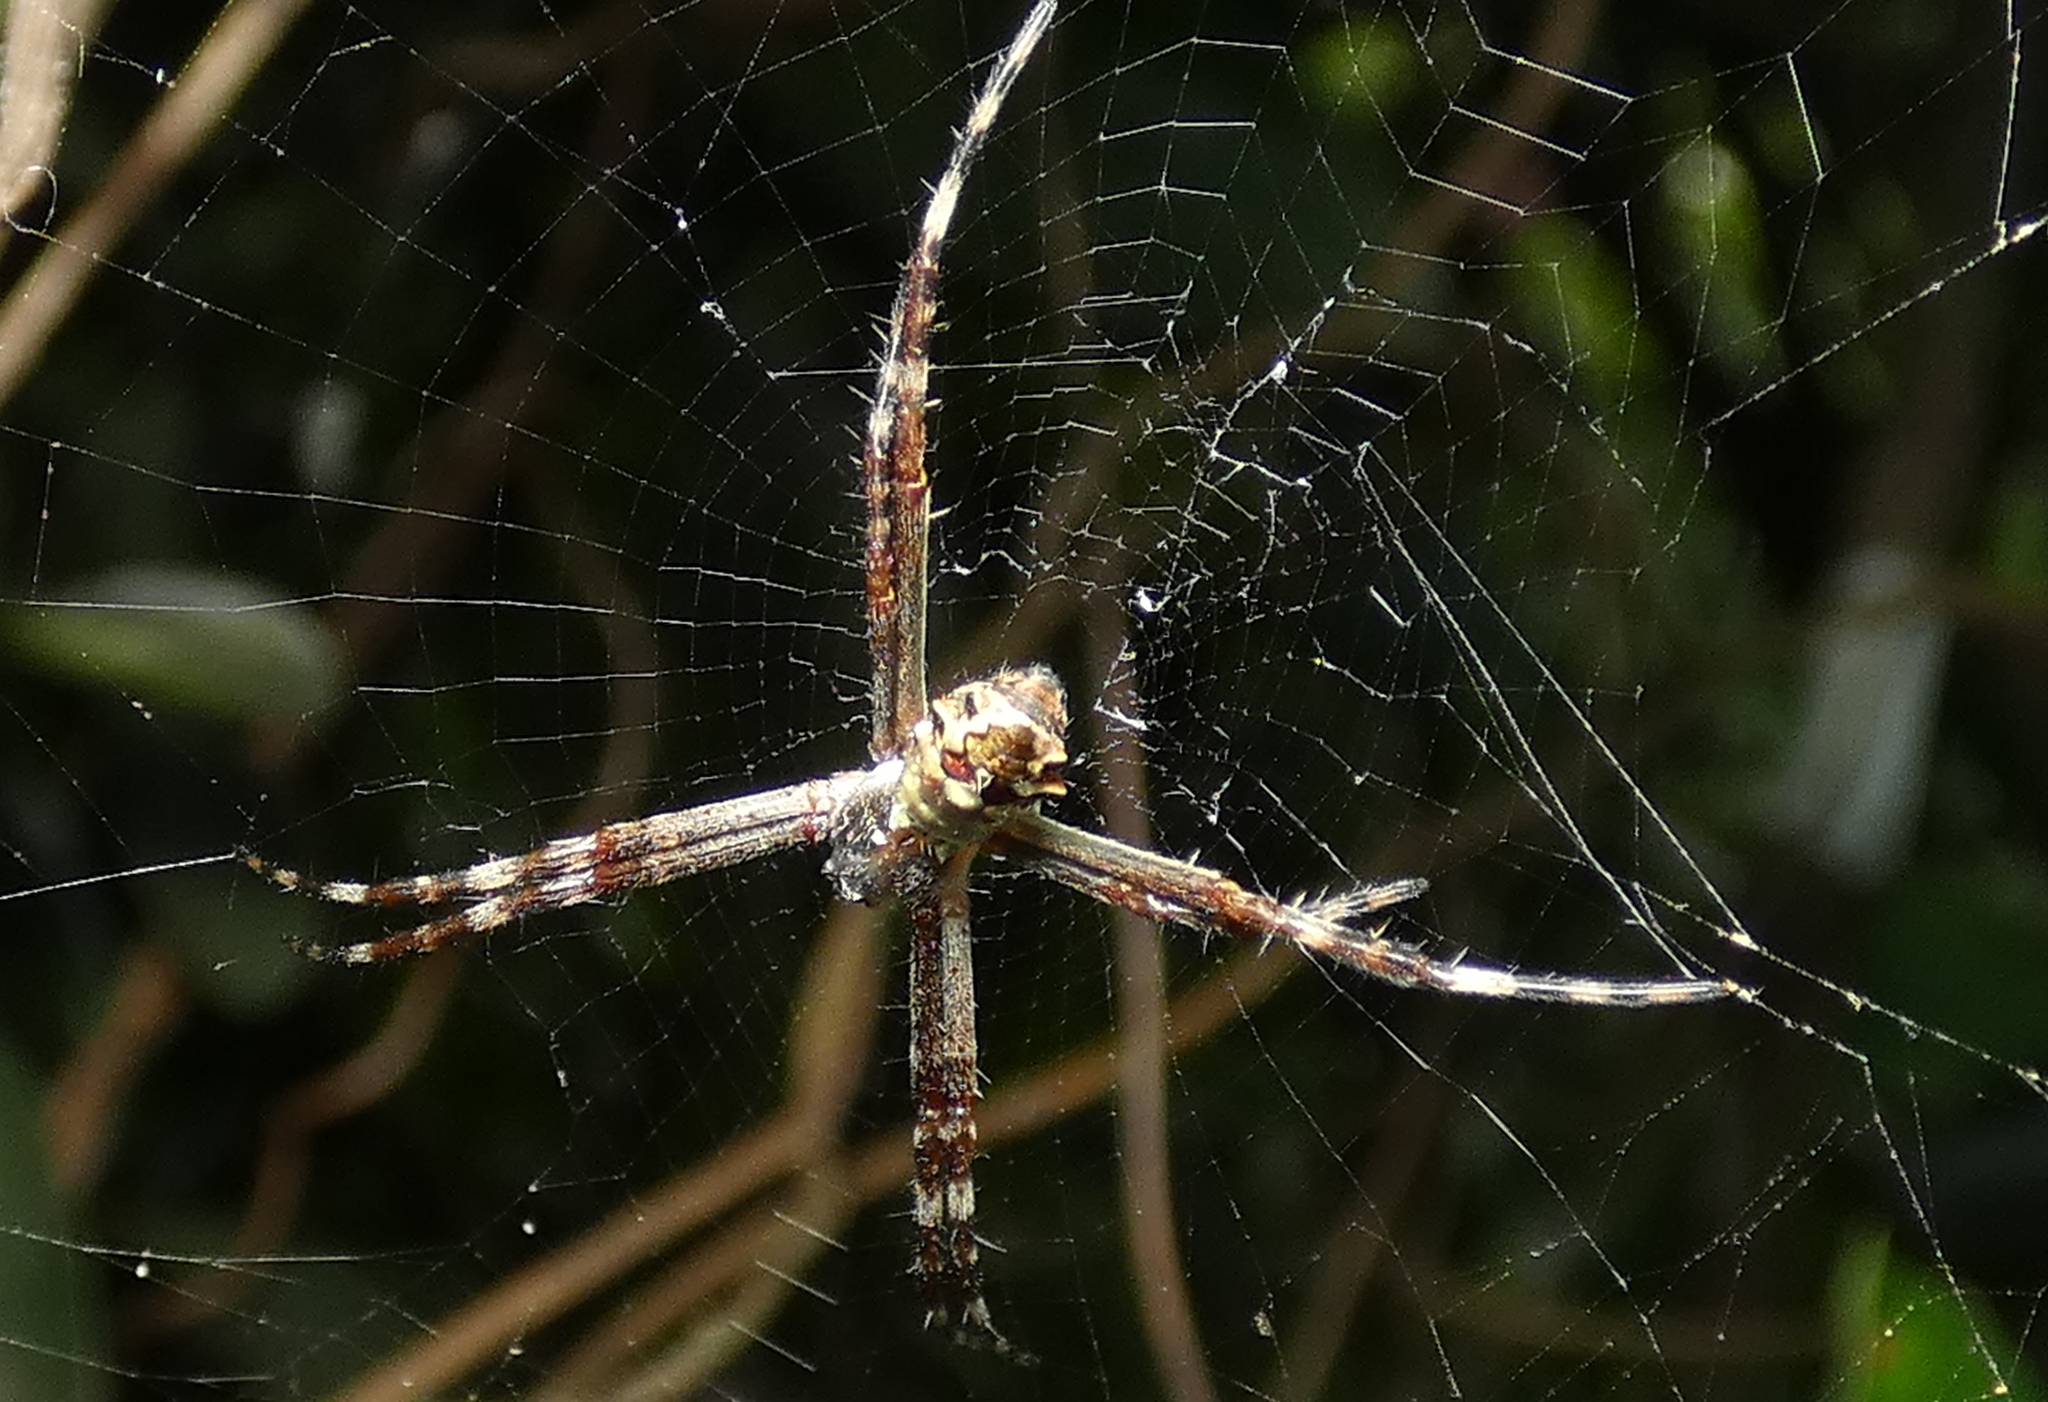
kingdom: Animalia
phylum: Arthropoda
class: Arachnida
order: Araneae
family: Araneidae
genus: Argiope
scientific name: Argiope argentata
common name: Orb weavers
